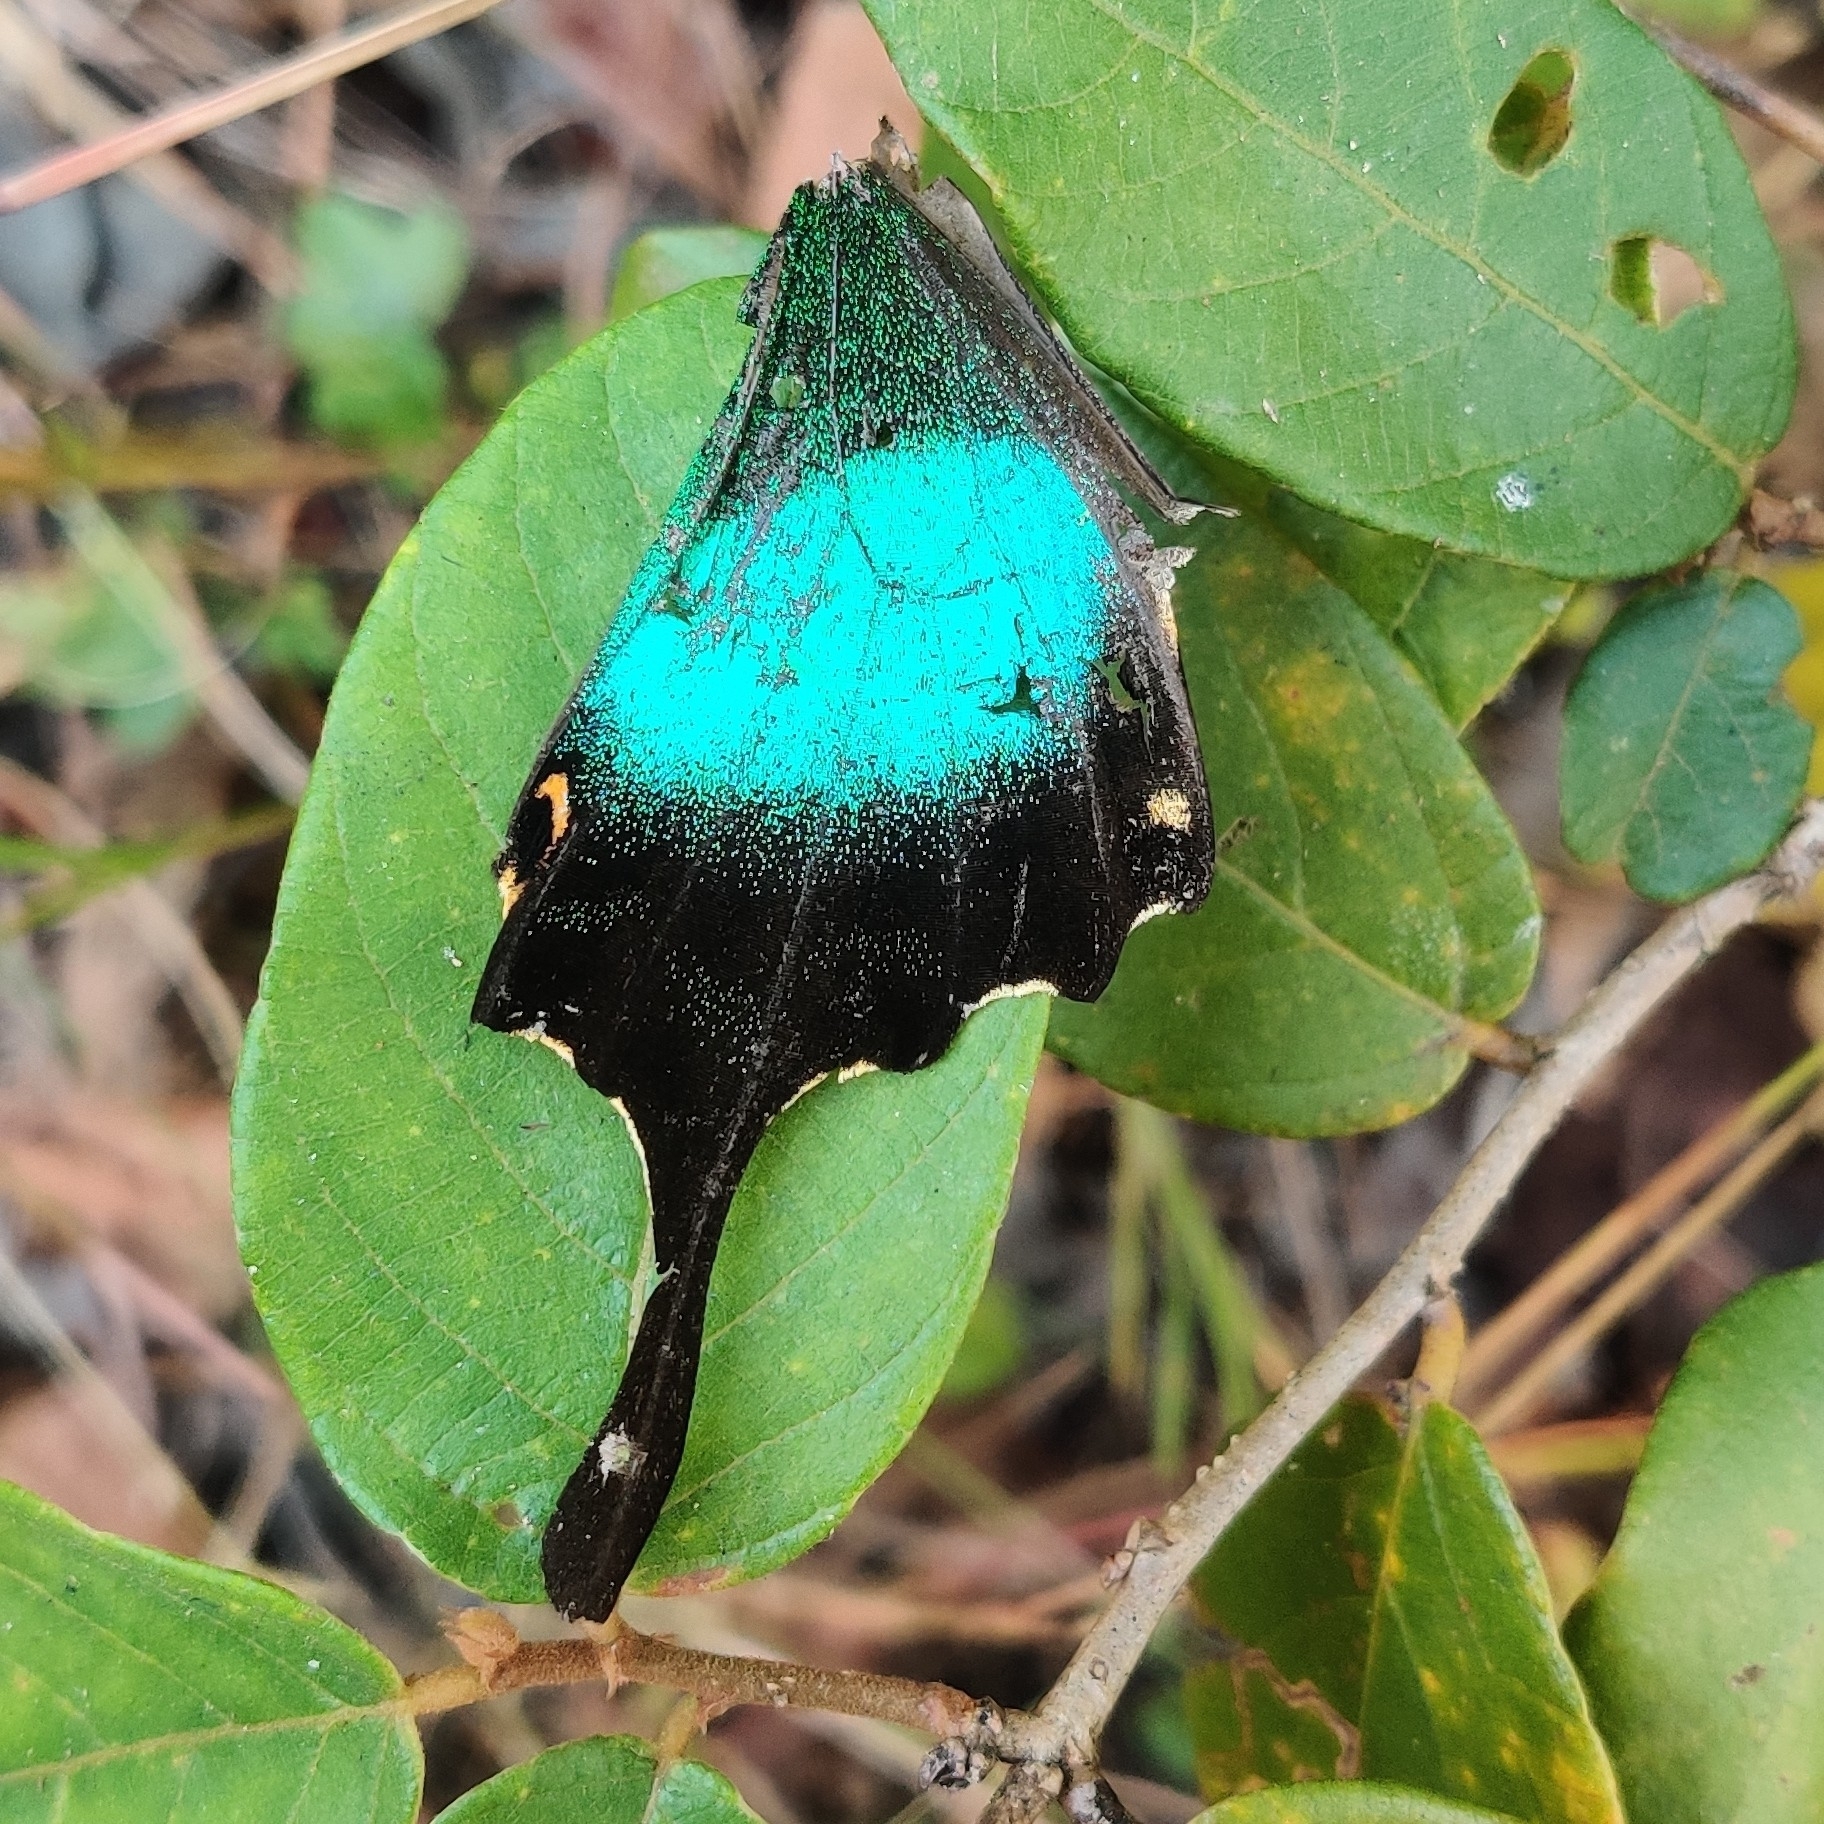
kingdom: Animalia
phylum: Arthropoda
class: Insecta
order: Lepidoptera
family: Papilionidae
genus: Papilio
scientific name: Papilio buddha
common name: Malabar banded peacock
